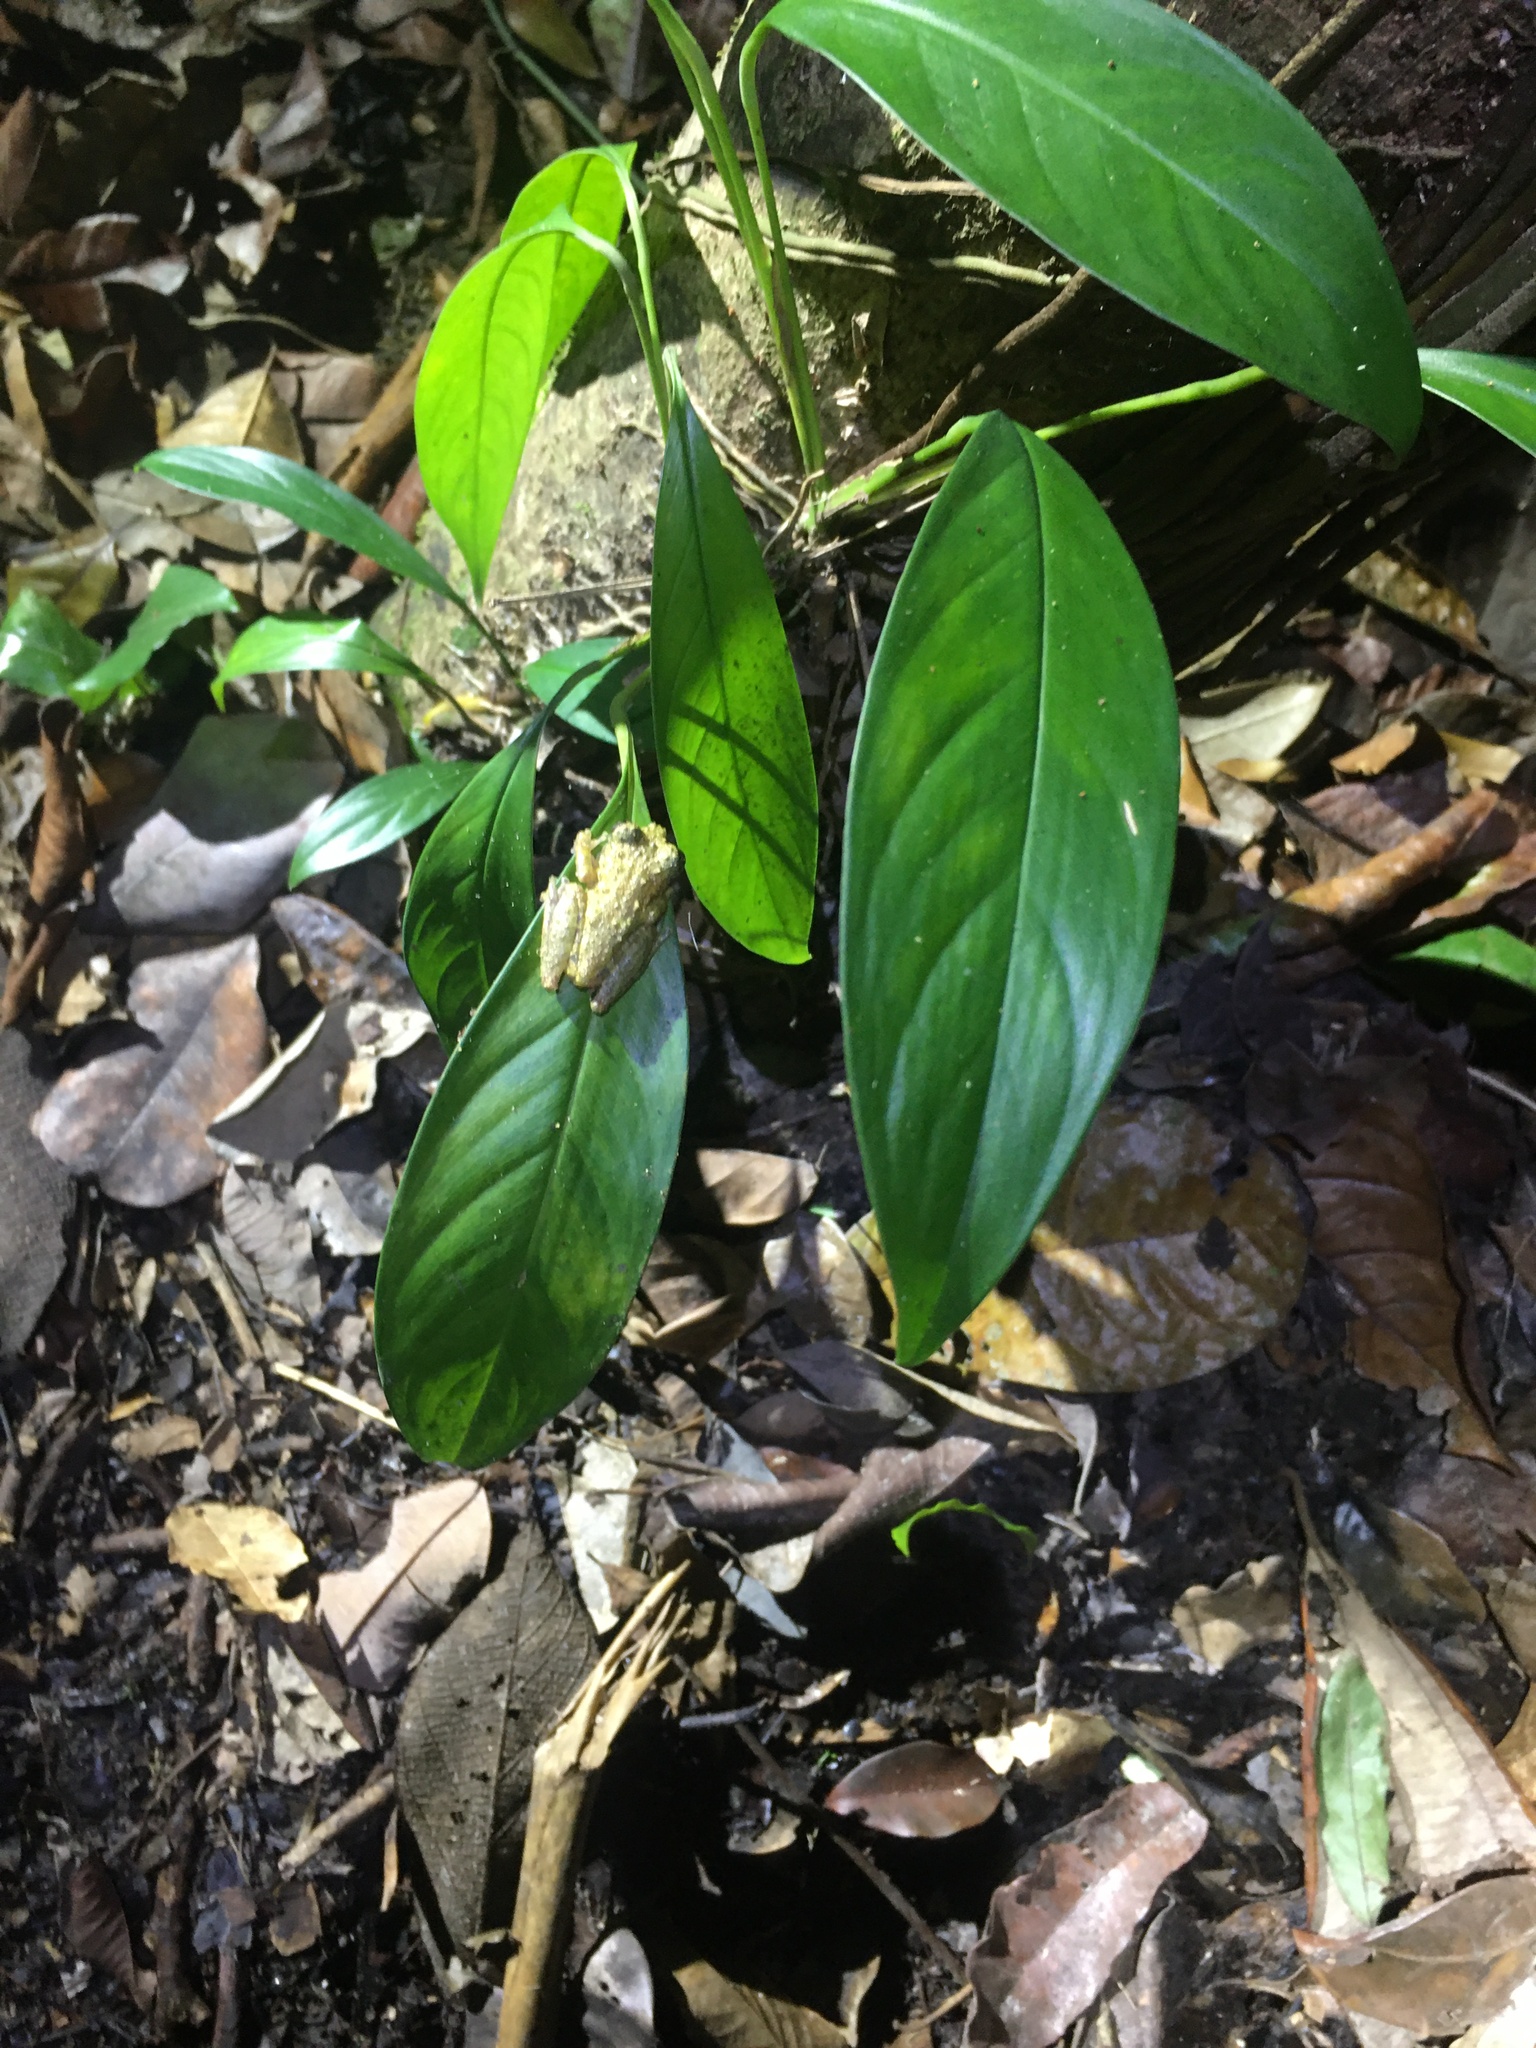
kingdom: Animalia
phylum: Chordata
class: Amphibia
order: Anura
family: Hylidae
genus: Ololygon
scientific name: Ololygon muriciensis
